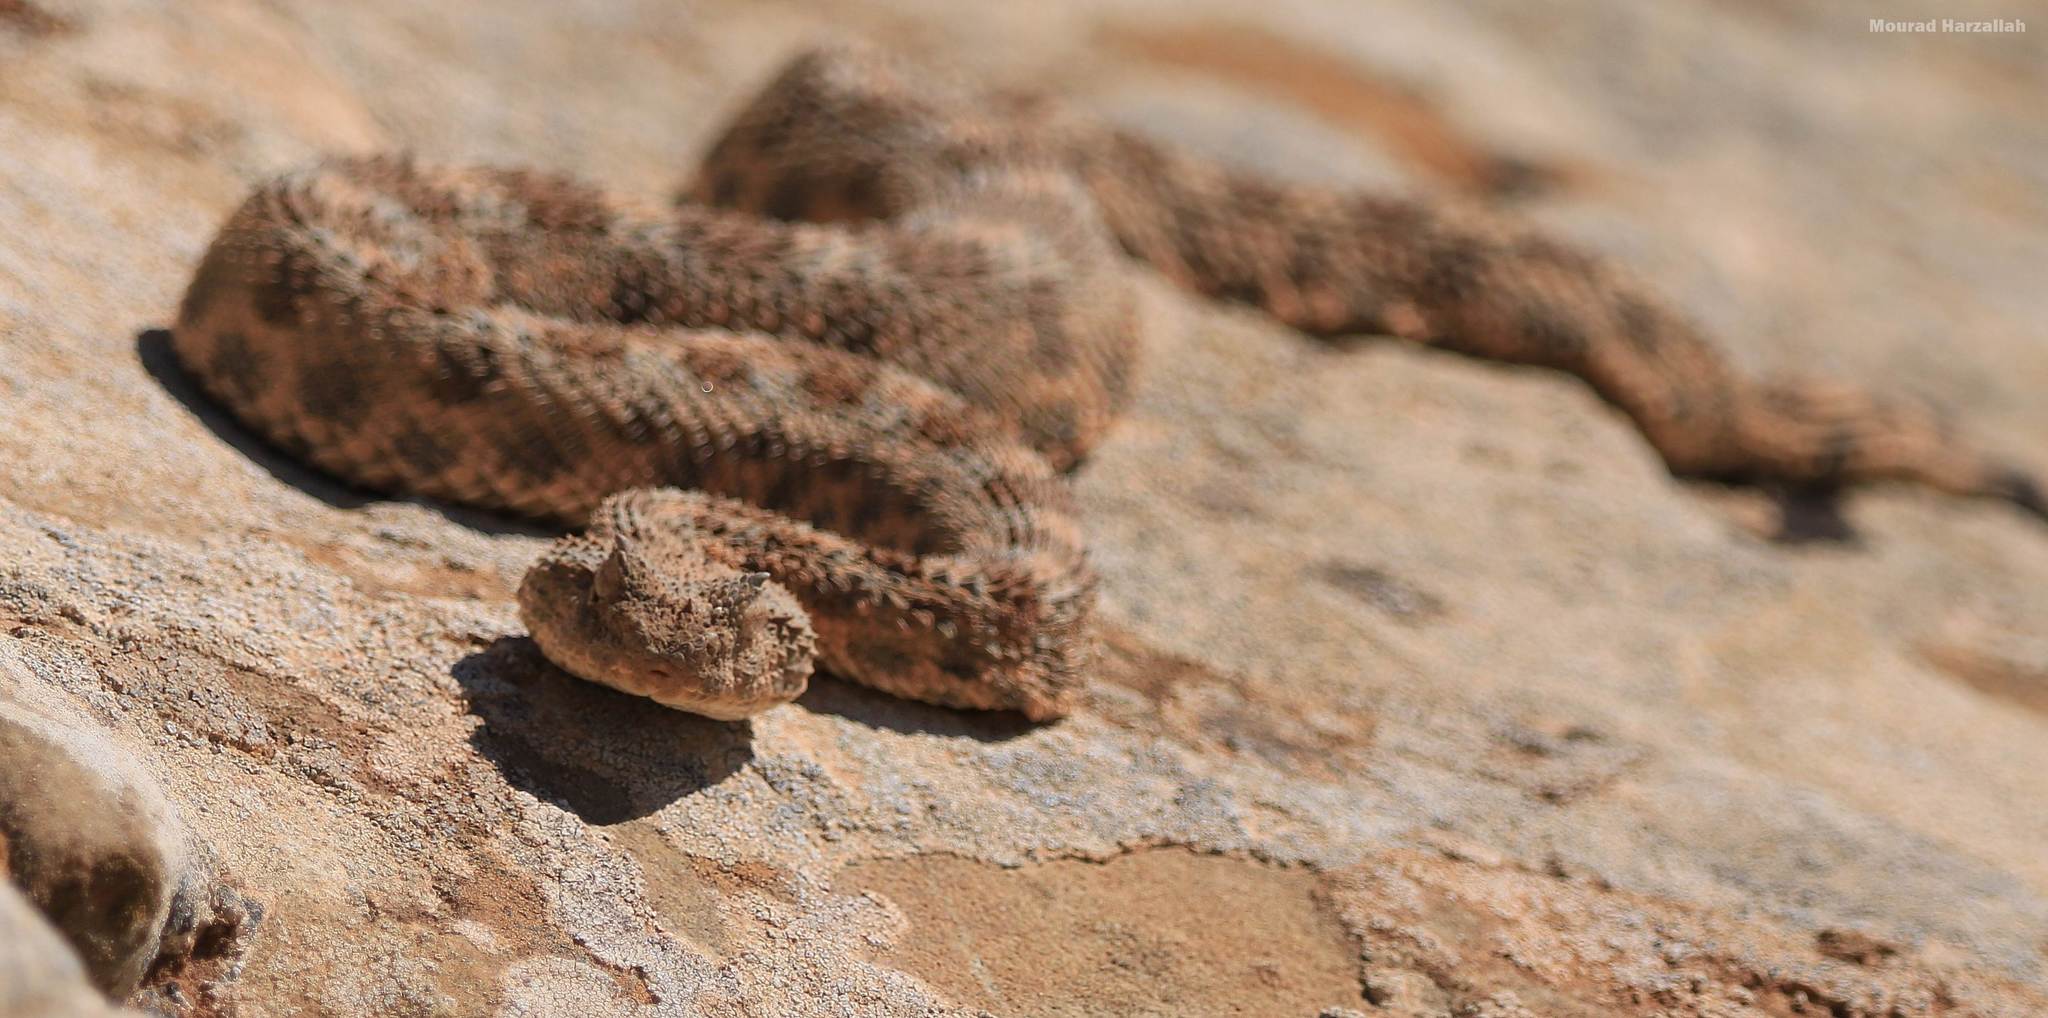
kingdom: Animalia
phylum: Chordata
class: Squamata
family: Viperidae
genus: Cerastes
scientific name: Cerastes cerastes
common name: Desert horned viper
